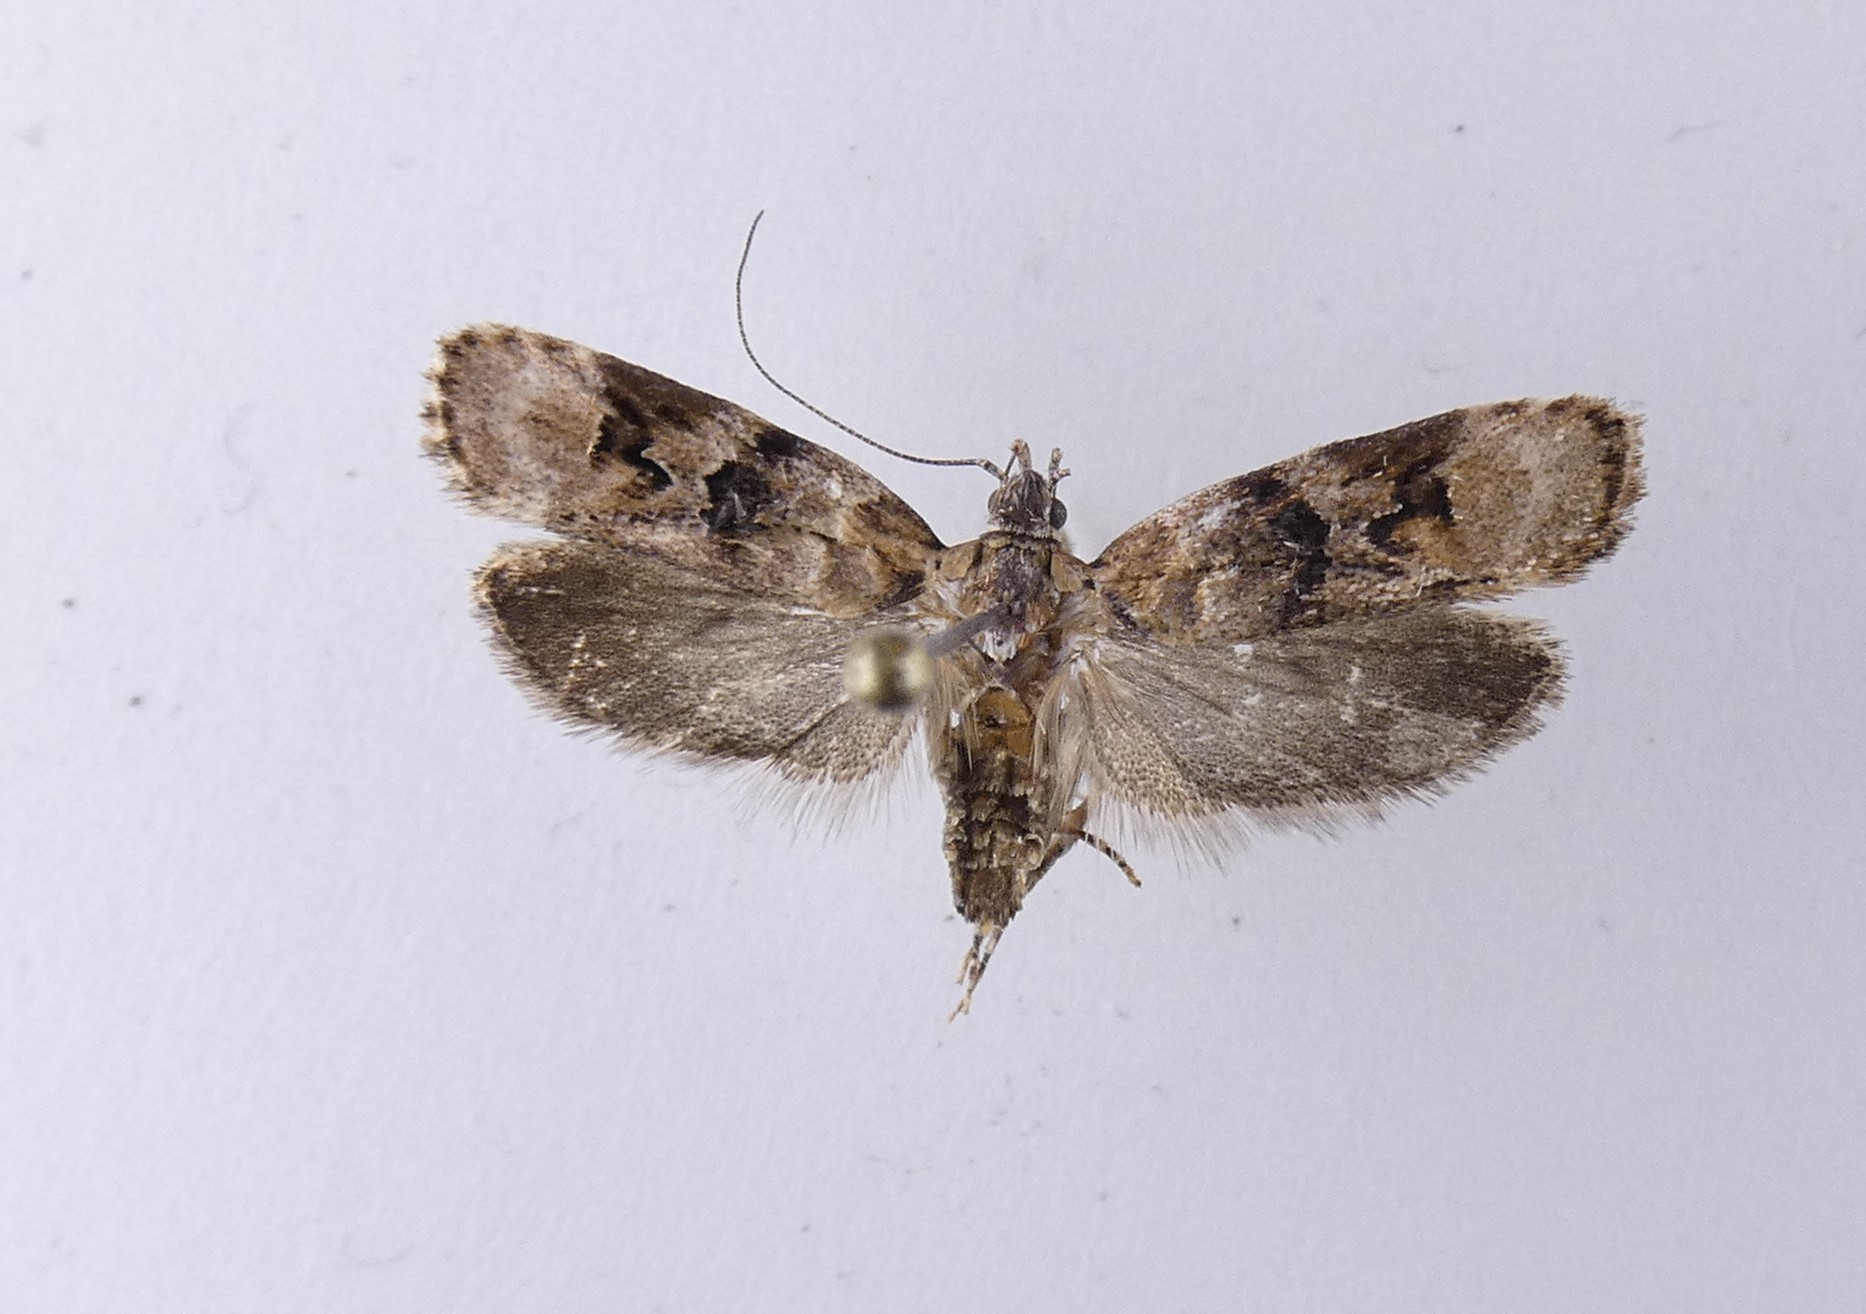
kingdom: Animalia
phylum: Arthropoda
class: Insecta
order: Lepidoptera
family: Oecophoridae
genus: Izatha
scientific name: Izatha metadelta
